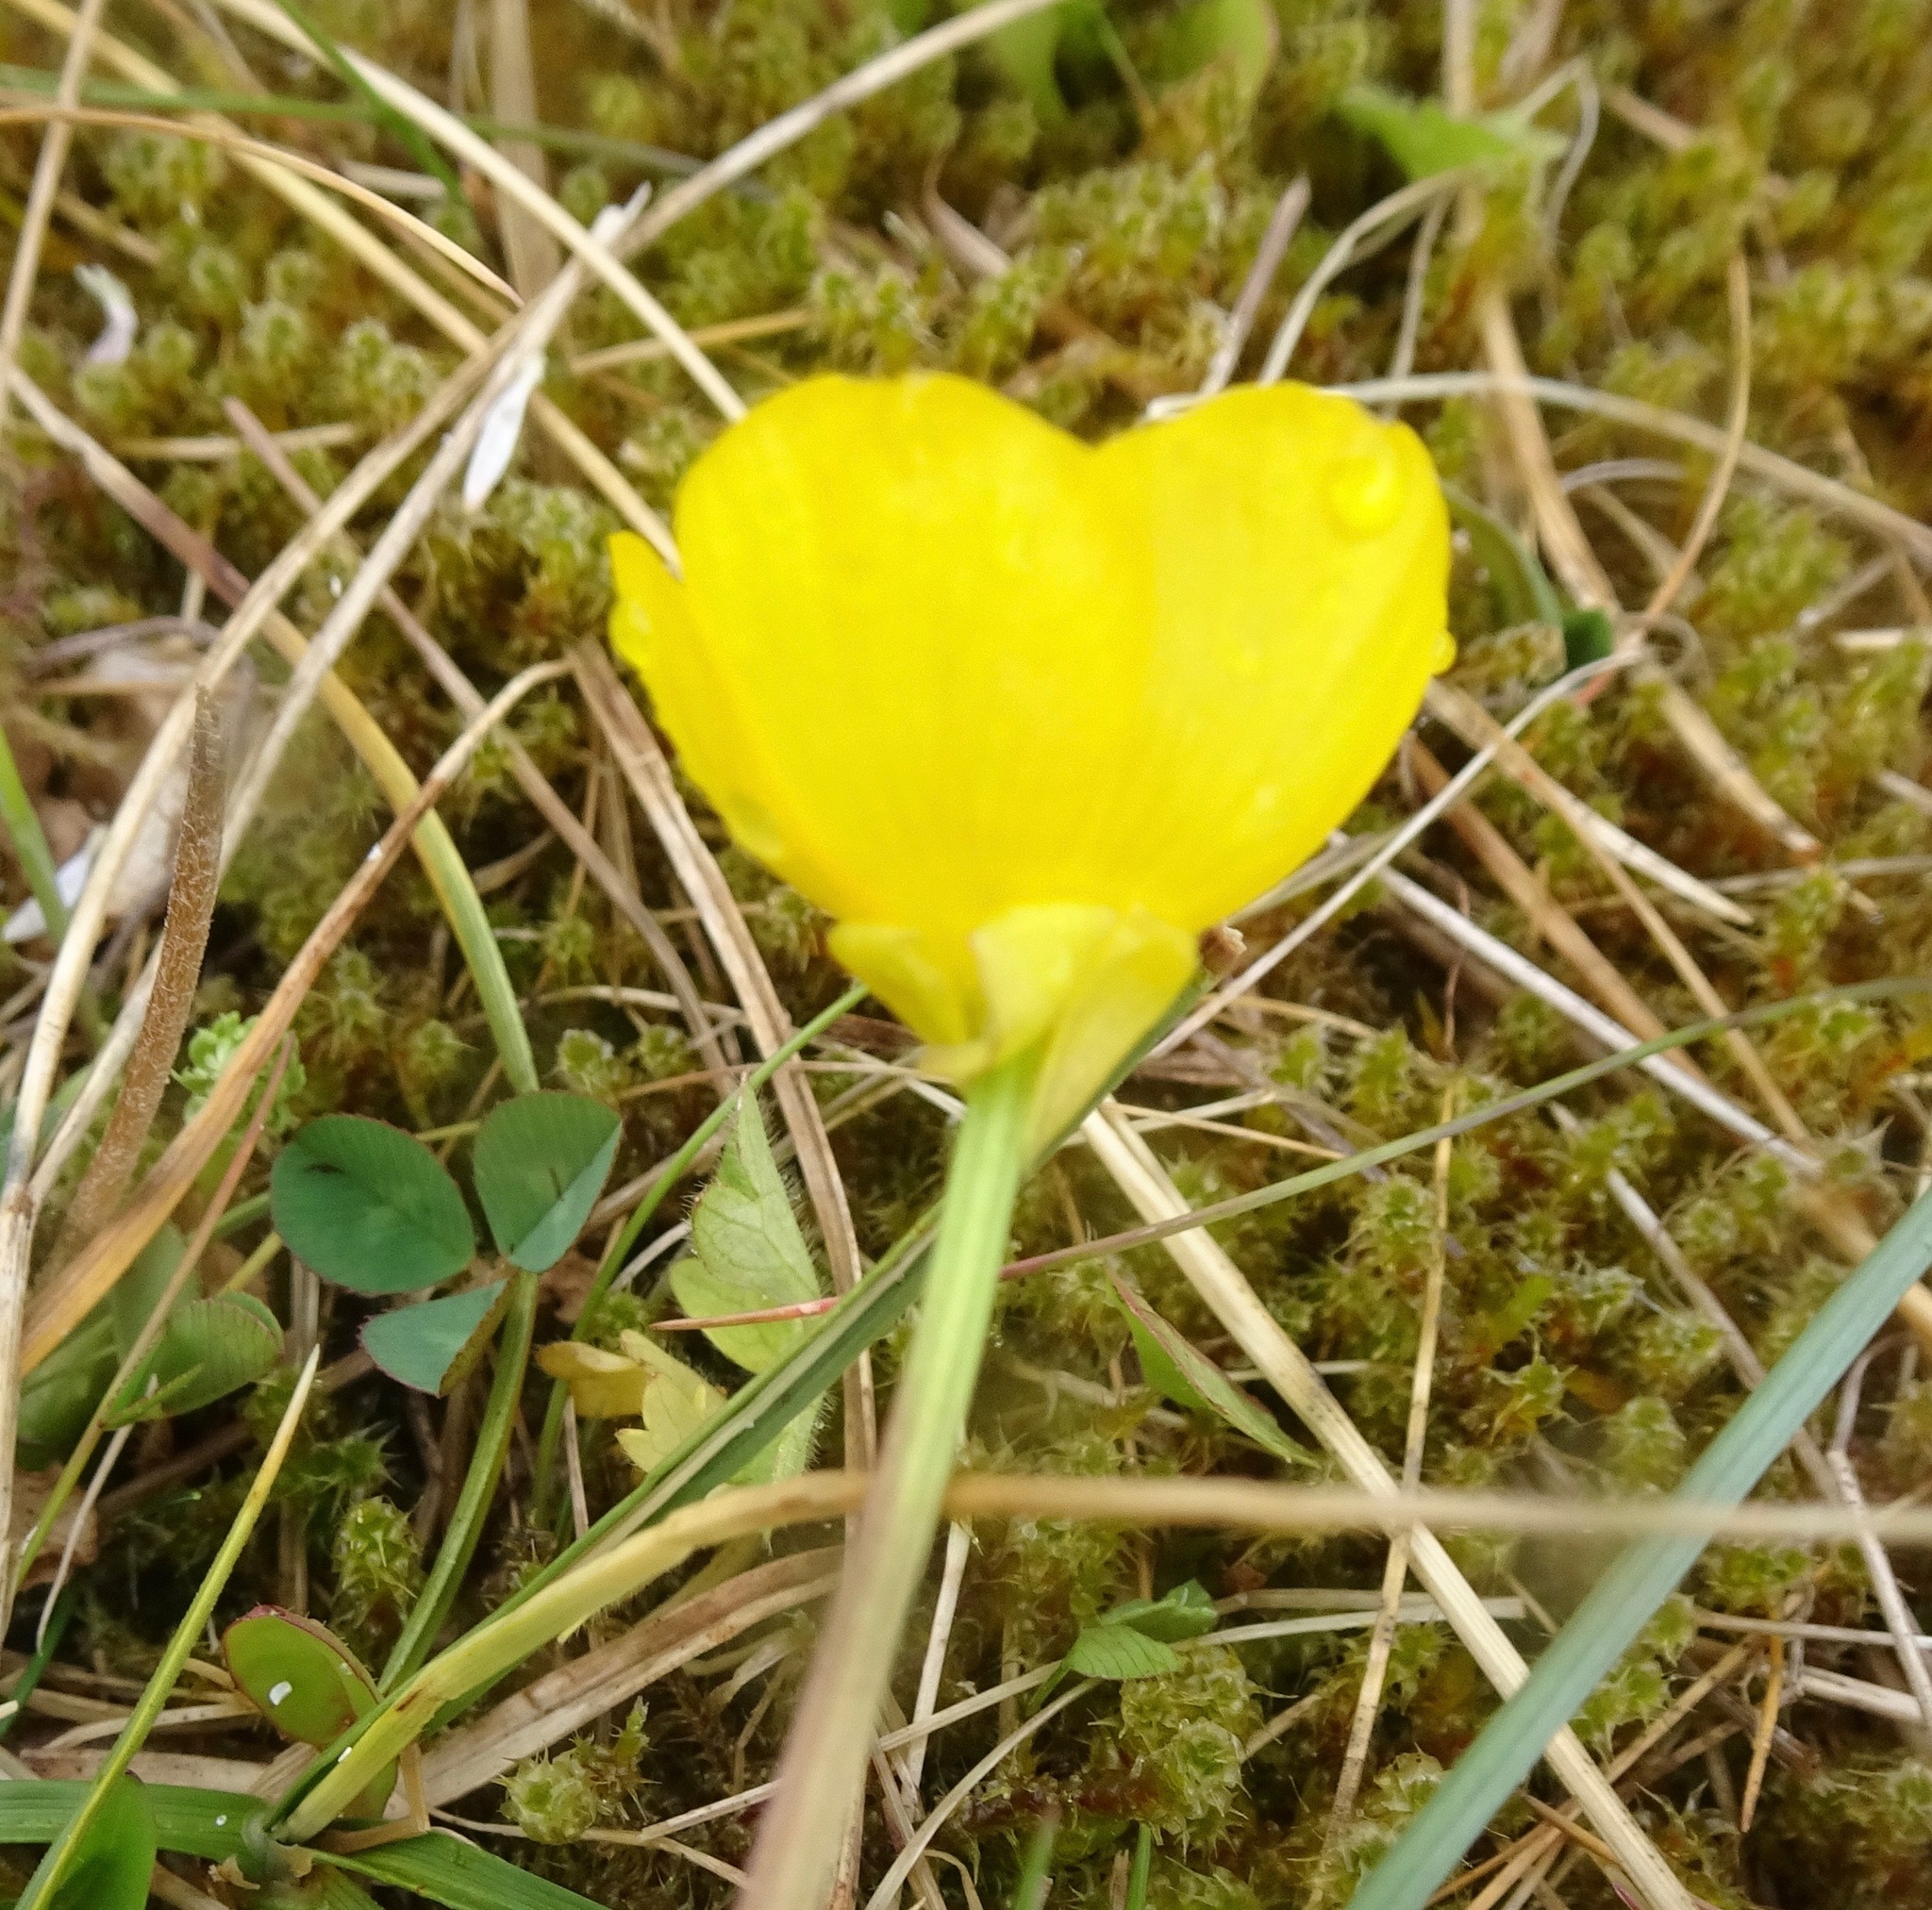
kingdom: Plantae
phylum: Tracheophyta
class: Magnoliopsida
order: Ranunculales
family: Ranunculaceae
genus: Ranunculus
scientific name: Ranunculus bulbosus
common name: Bulbous buttercup
